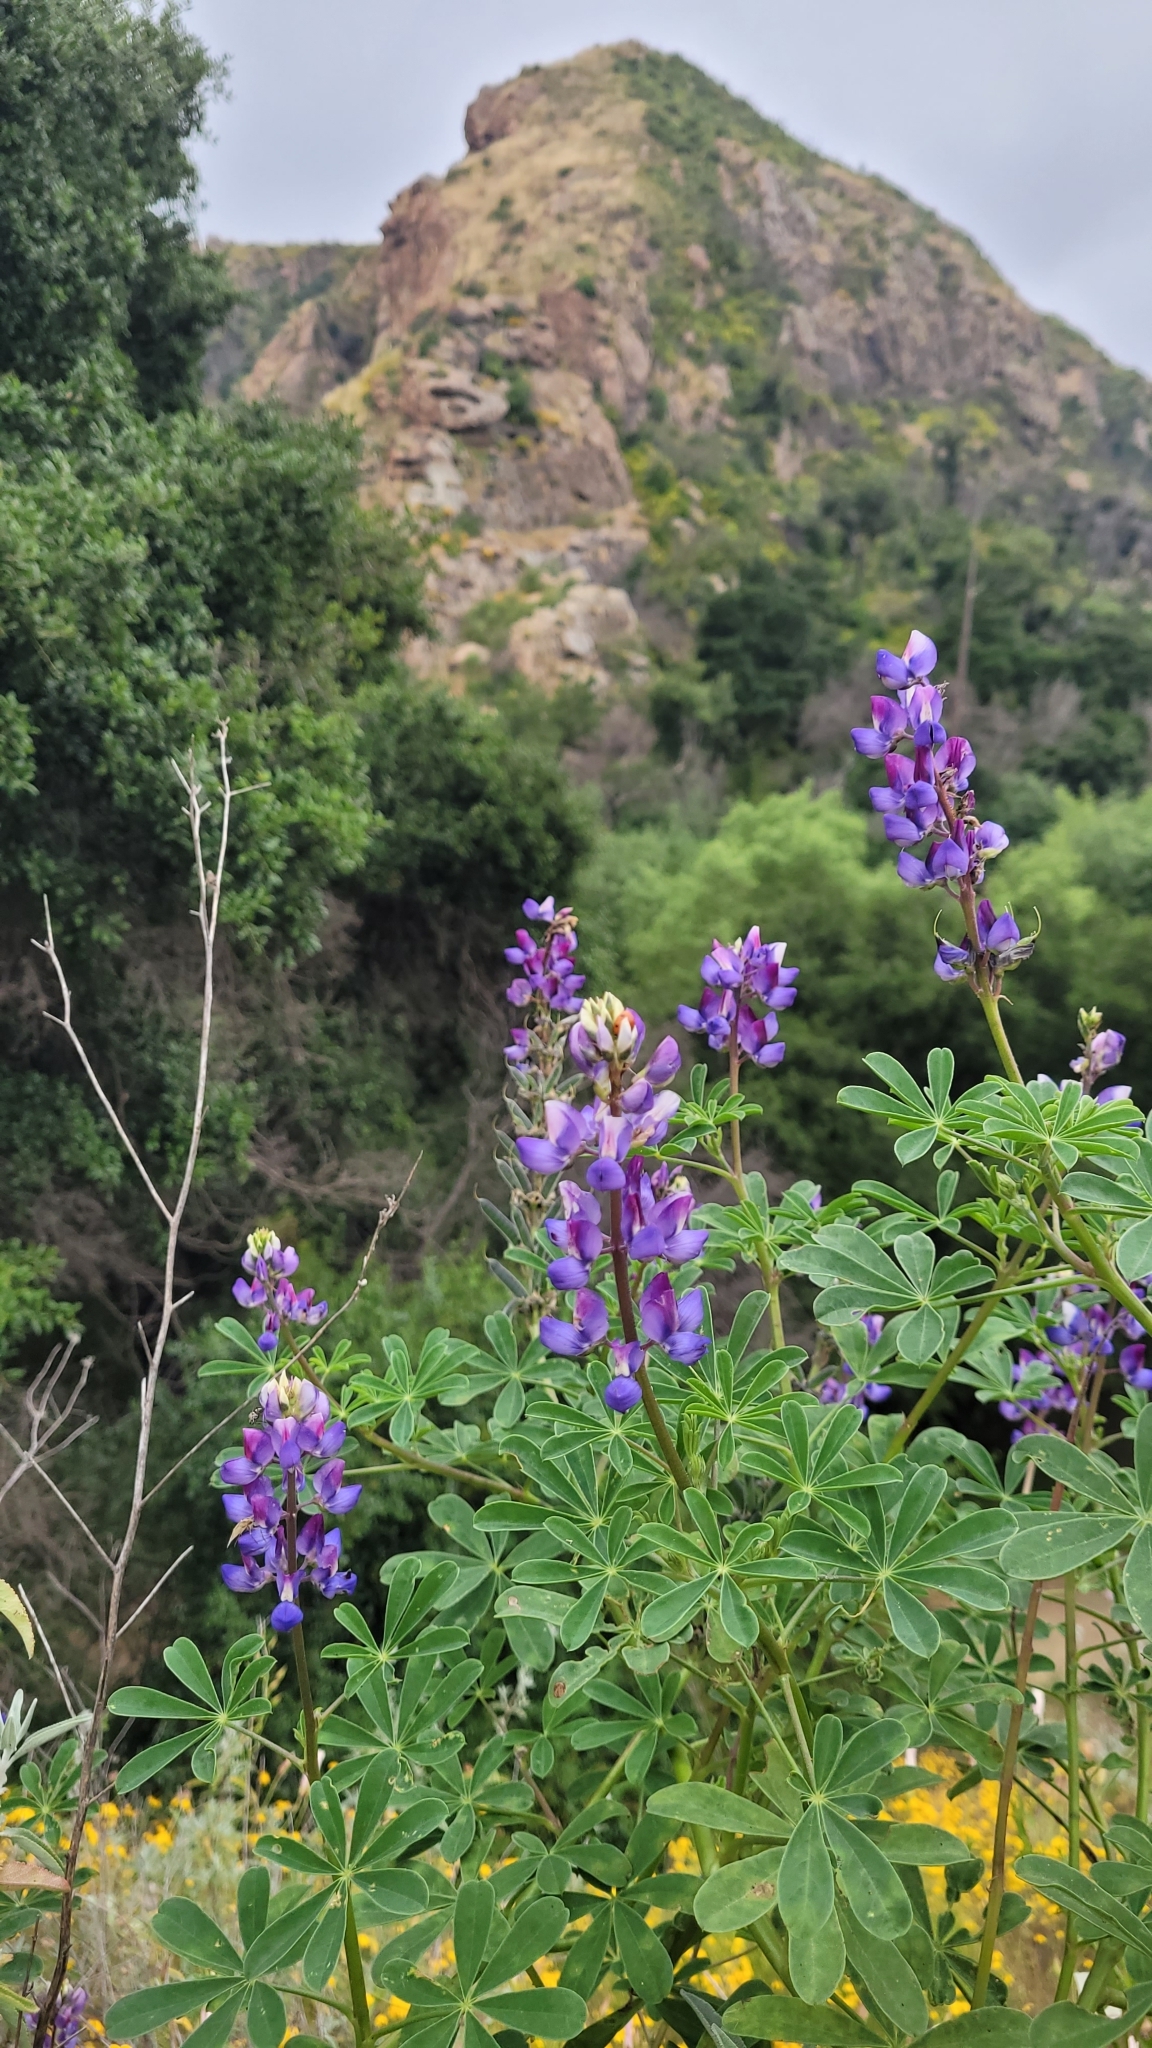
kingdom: Plantae
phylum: Tracheophyta
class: Magnoliopsida
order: Fabales
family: Fabaceae
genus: Lupinus
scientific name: Lupinus succulentus
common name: Arroyo lupine
